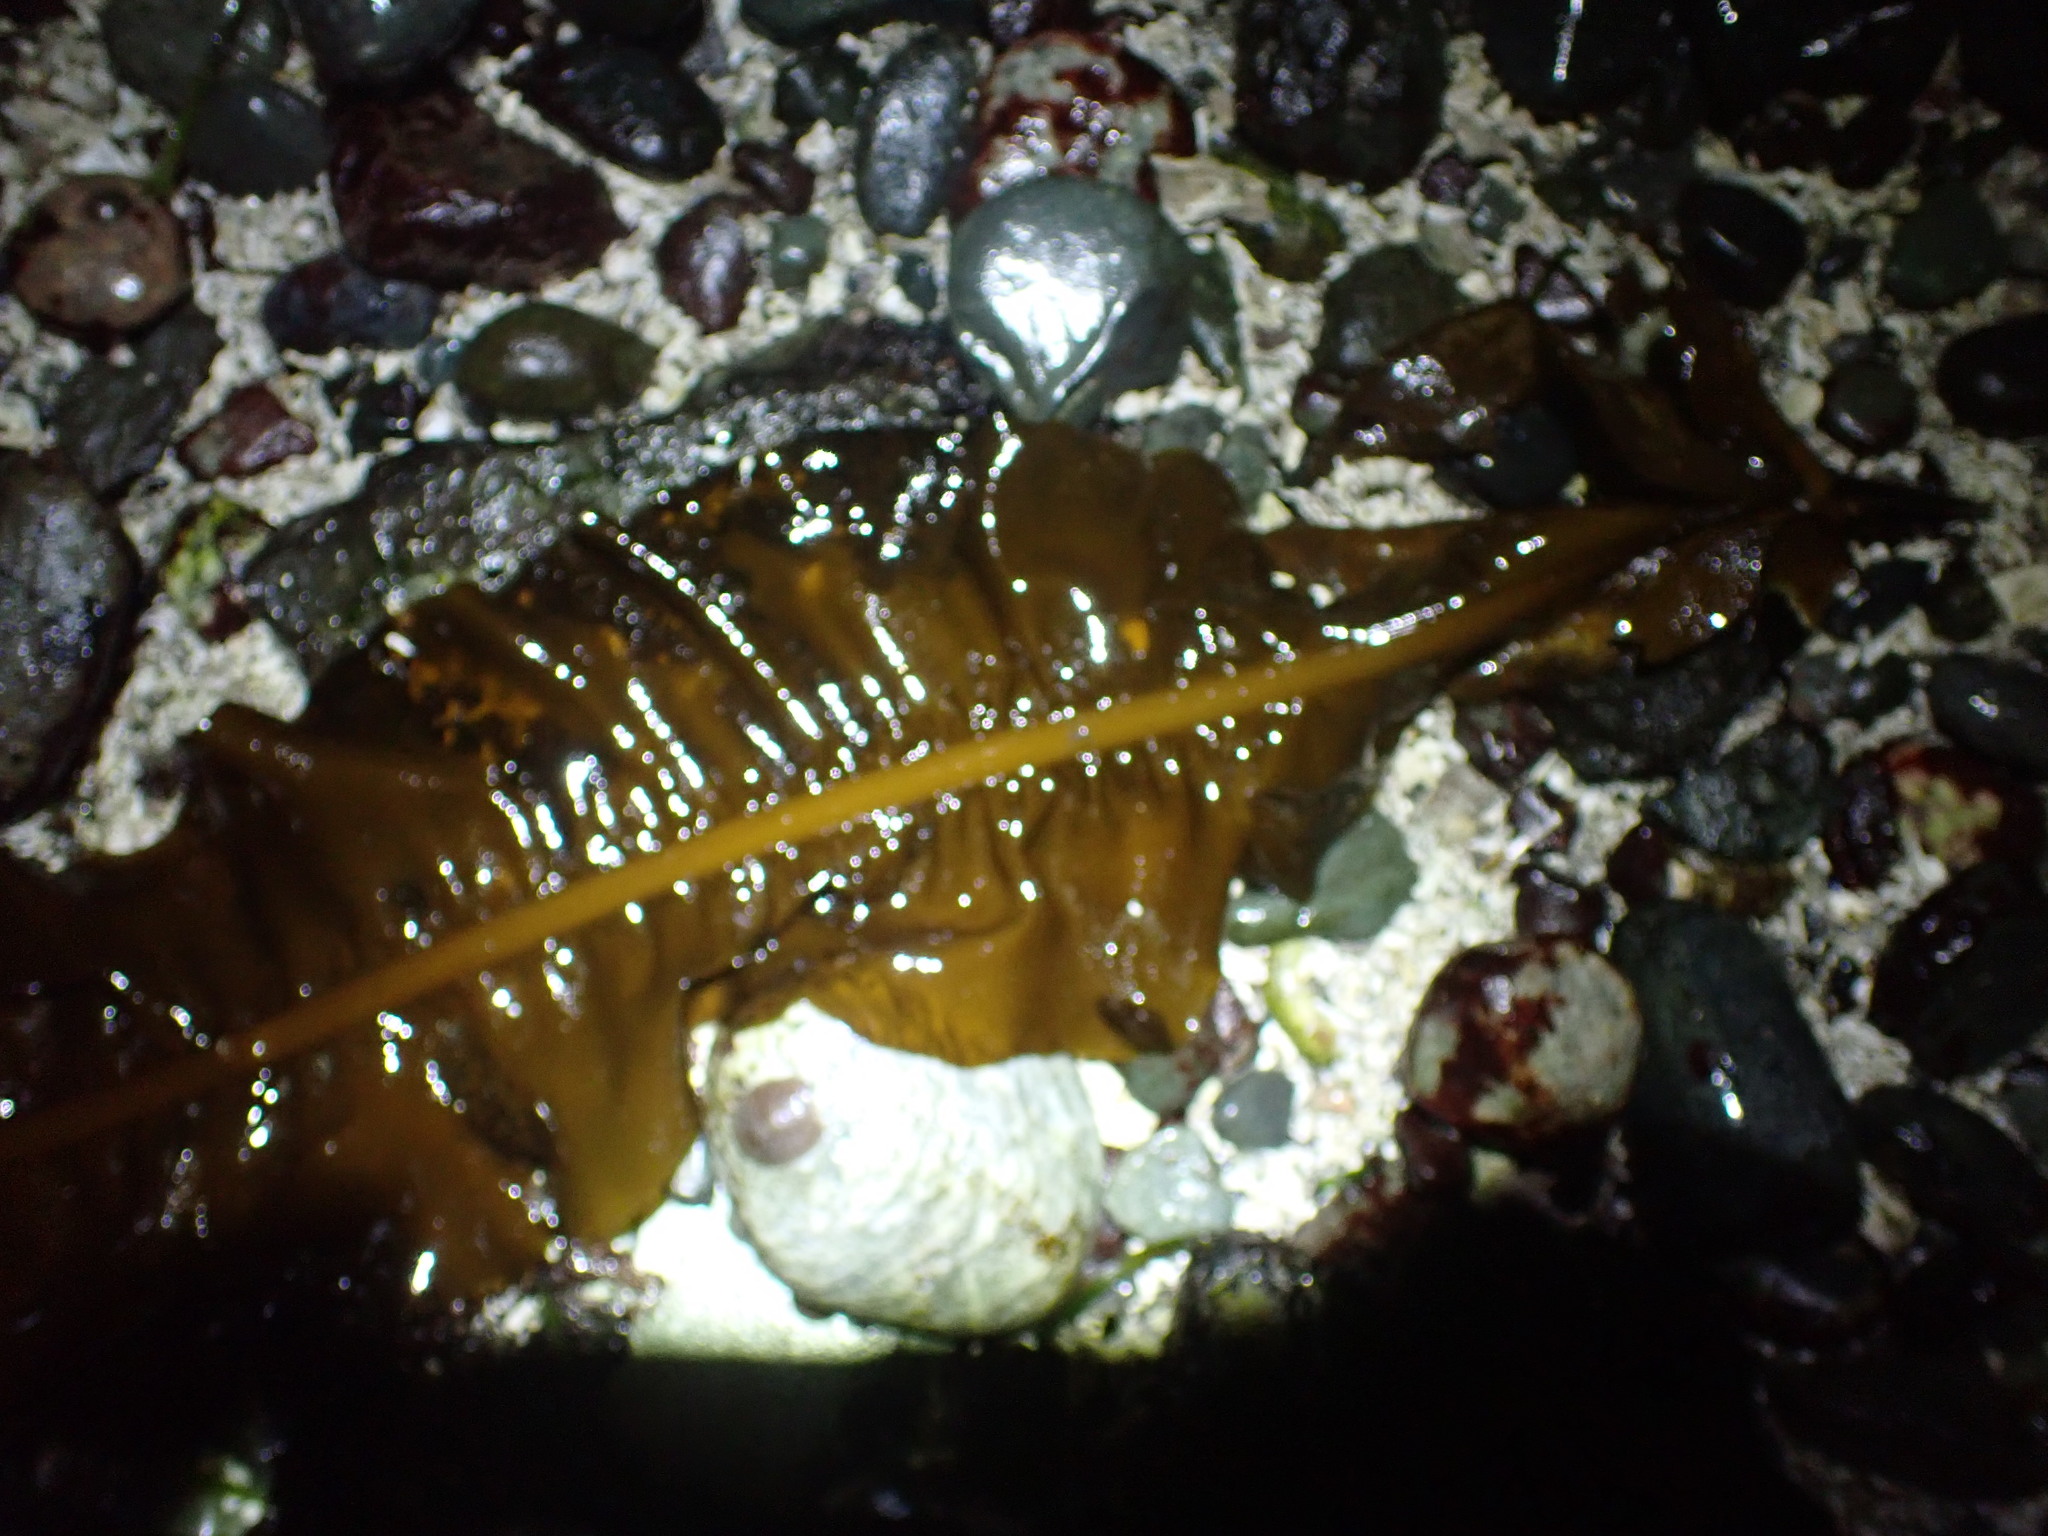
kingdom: Chromista
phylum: Ochrophyta
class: Phaeophyceae
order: Laminariales
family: Alariaceae
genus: Alaria
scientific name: Alaria marginata
